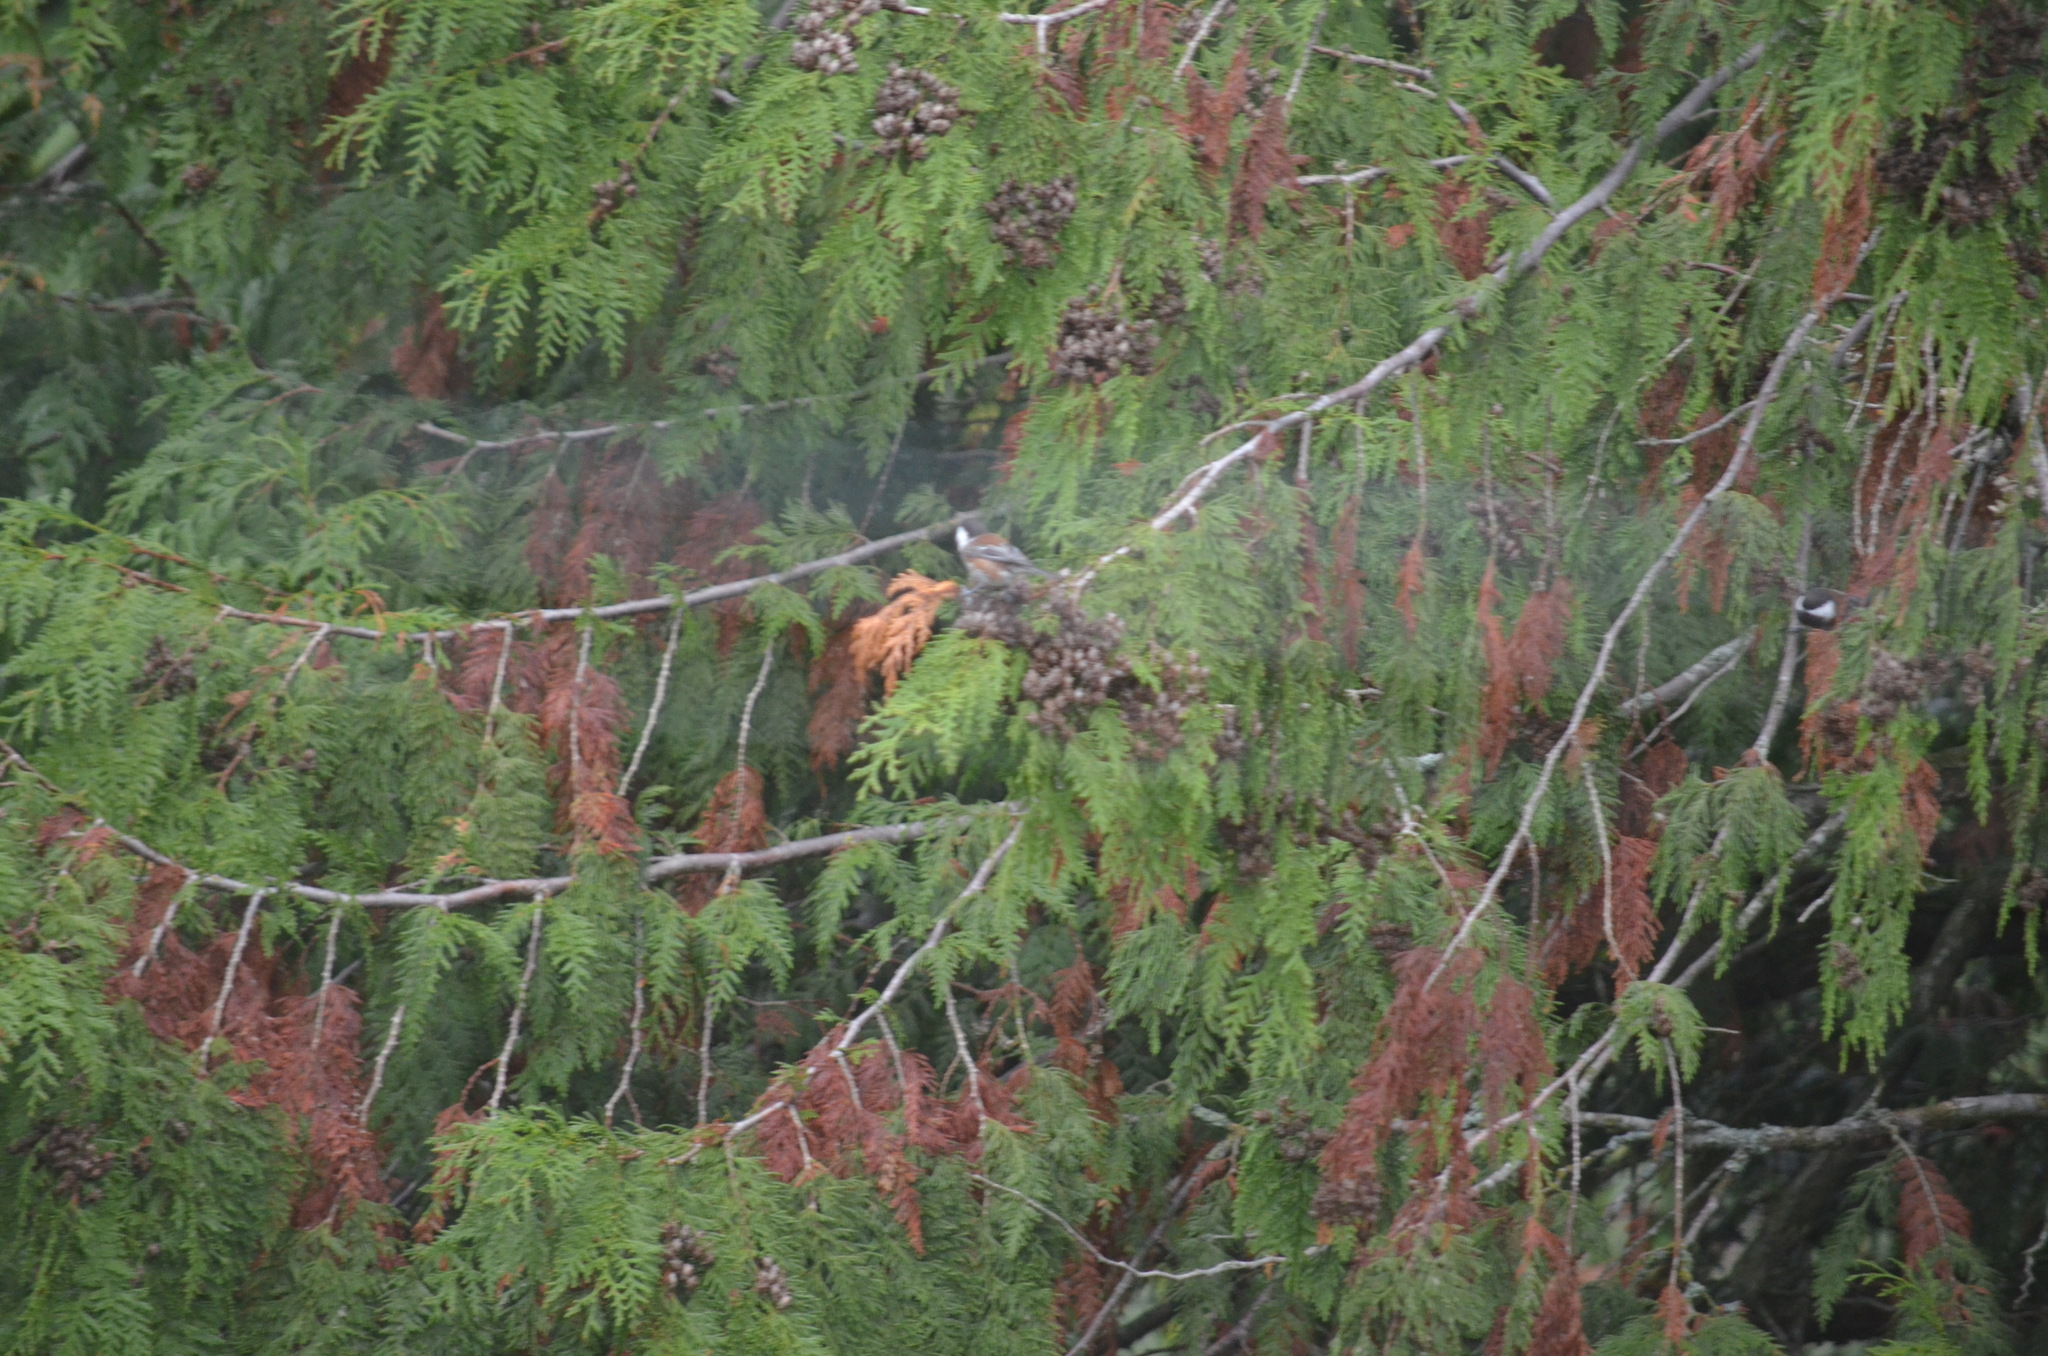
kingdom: Animalia
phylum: Chordata
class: Aves
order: Passeriformes
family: Paridae
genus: Poecile
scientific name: Poecile rufescens
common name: Chestnut-backed chickadee
